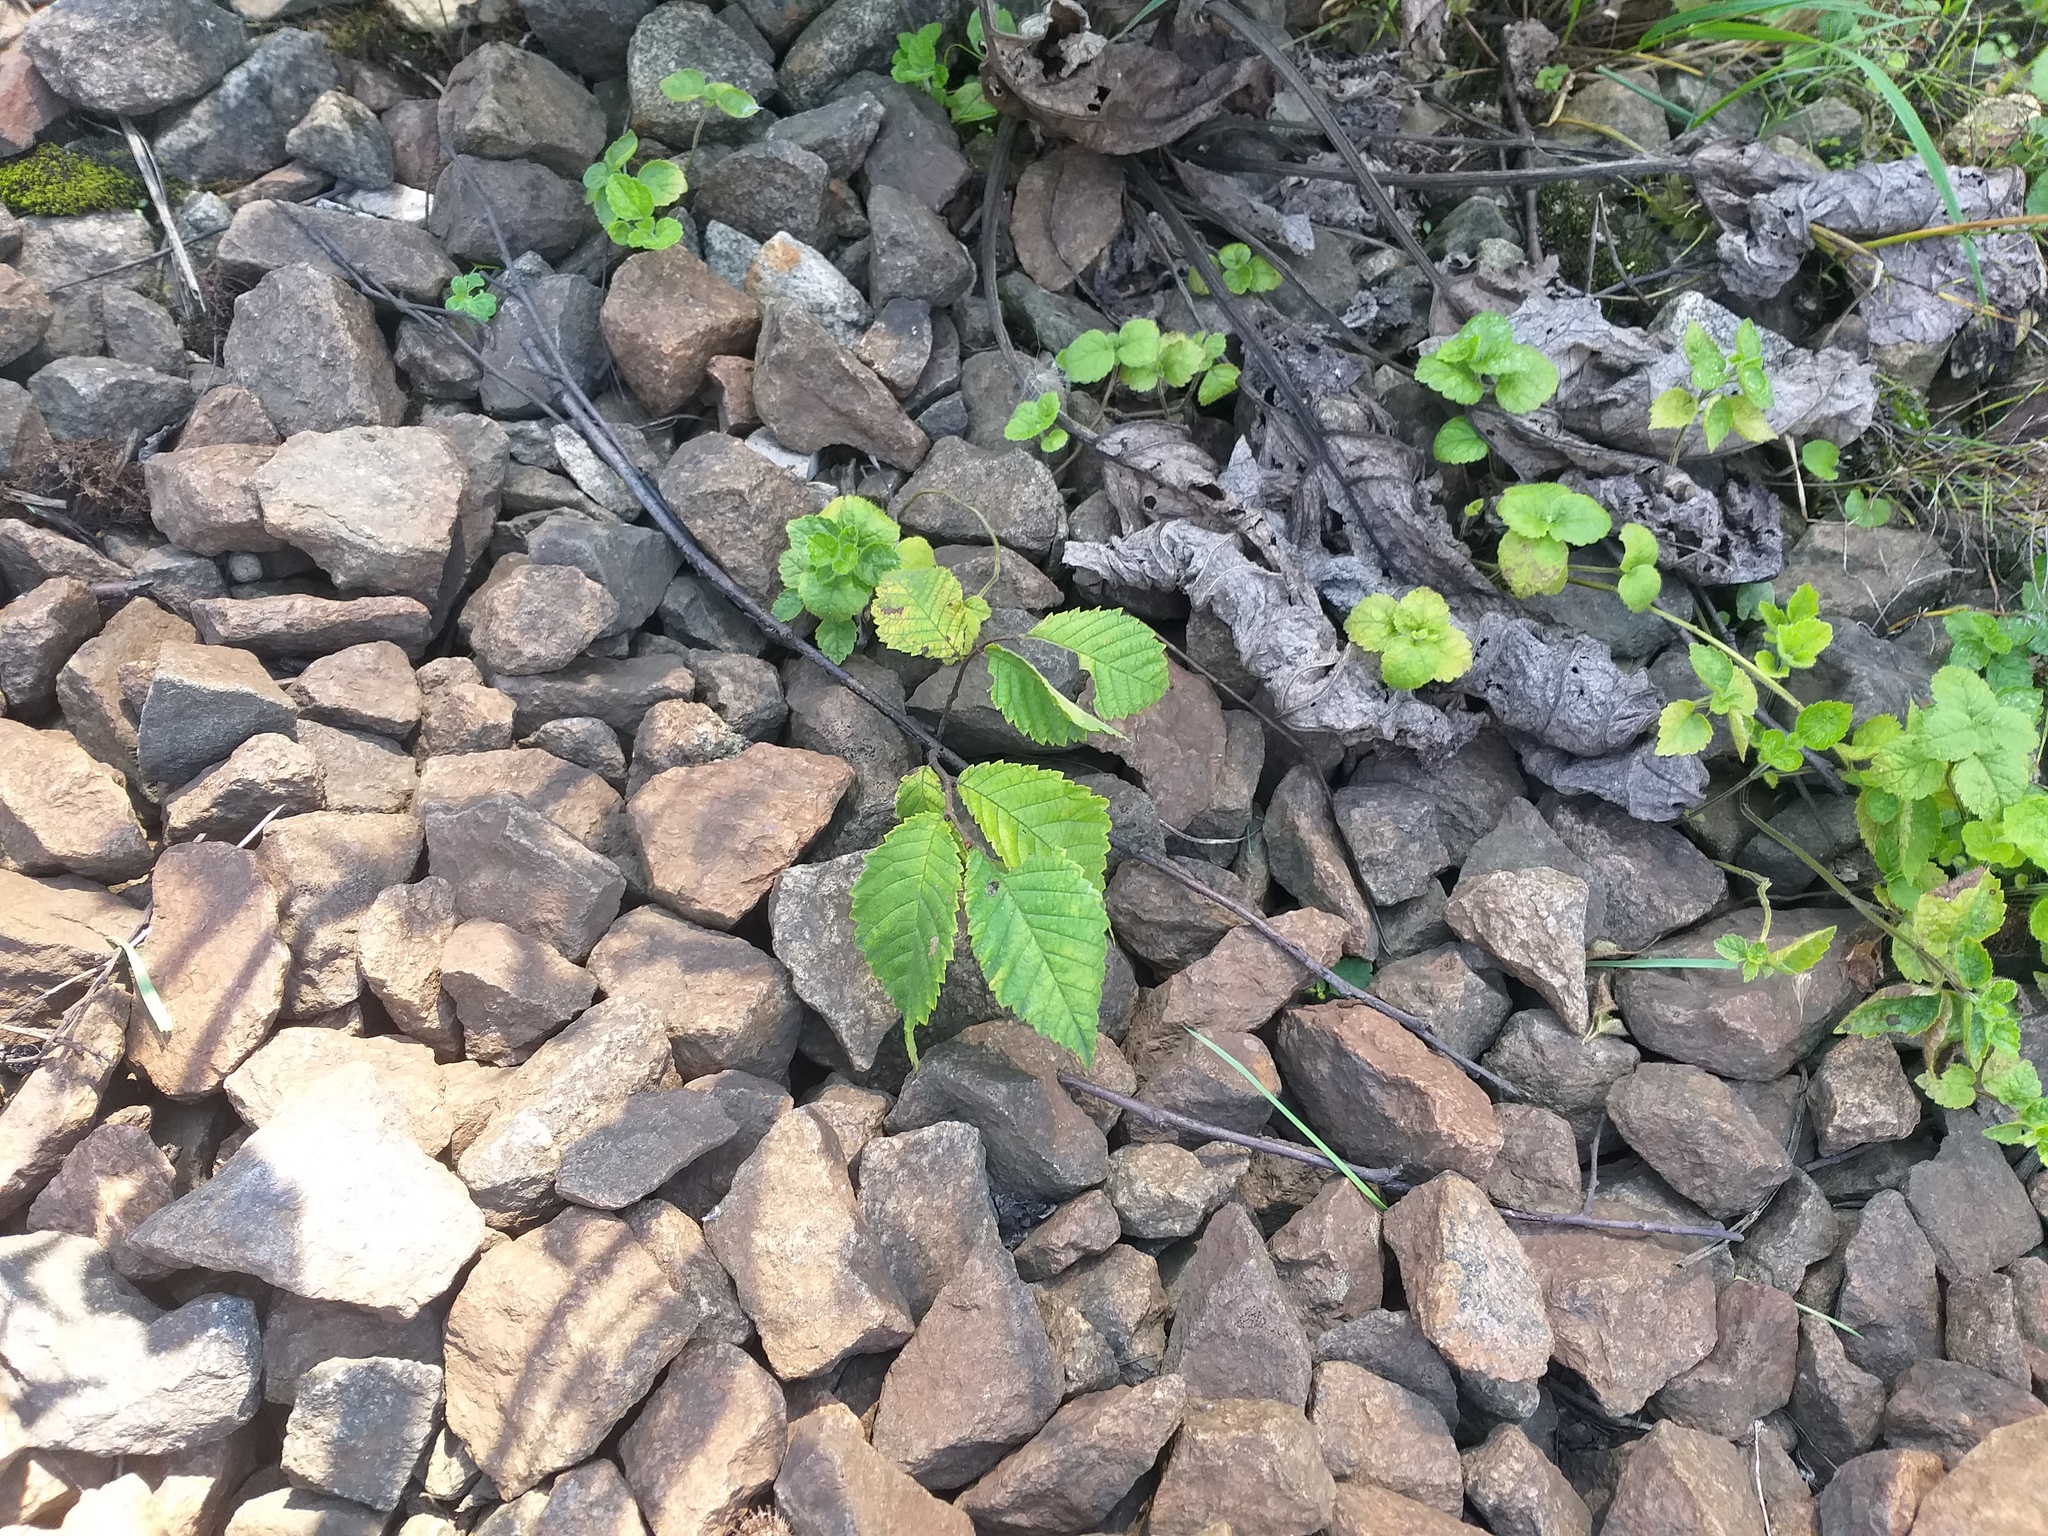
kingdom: Plantae
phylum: Tracheophyta
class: Magnoliopsida
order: Rosales
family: Ulmaceae
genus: Ulmus
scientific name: Ulmus glabra
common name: Wych elm
